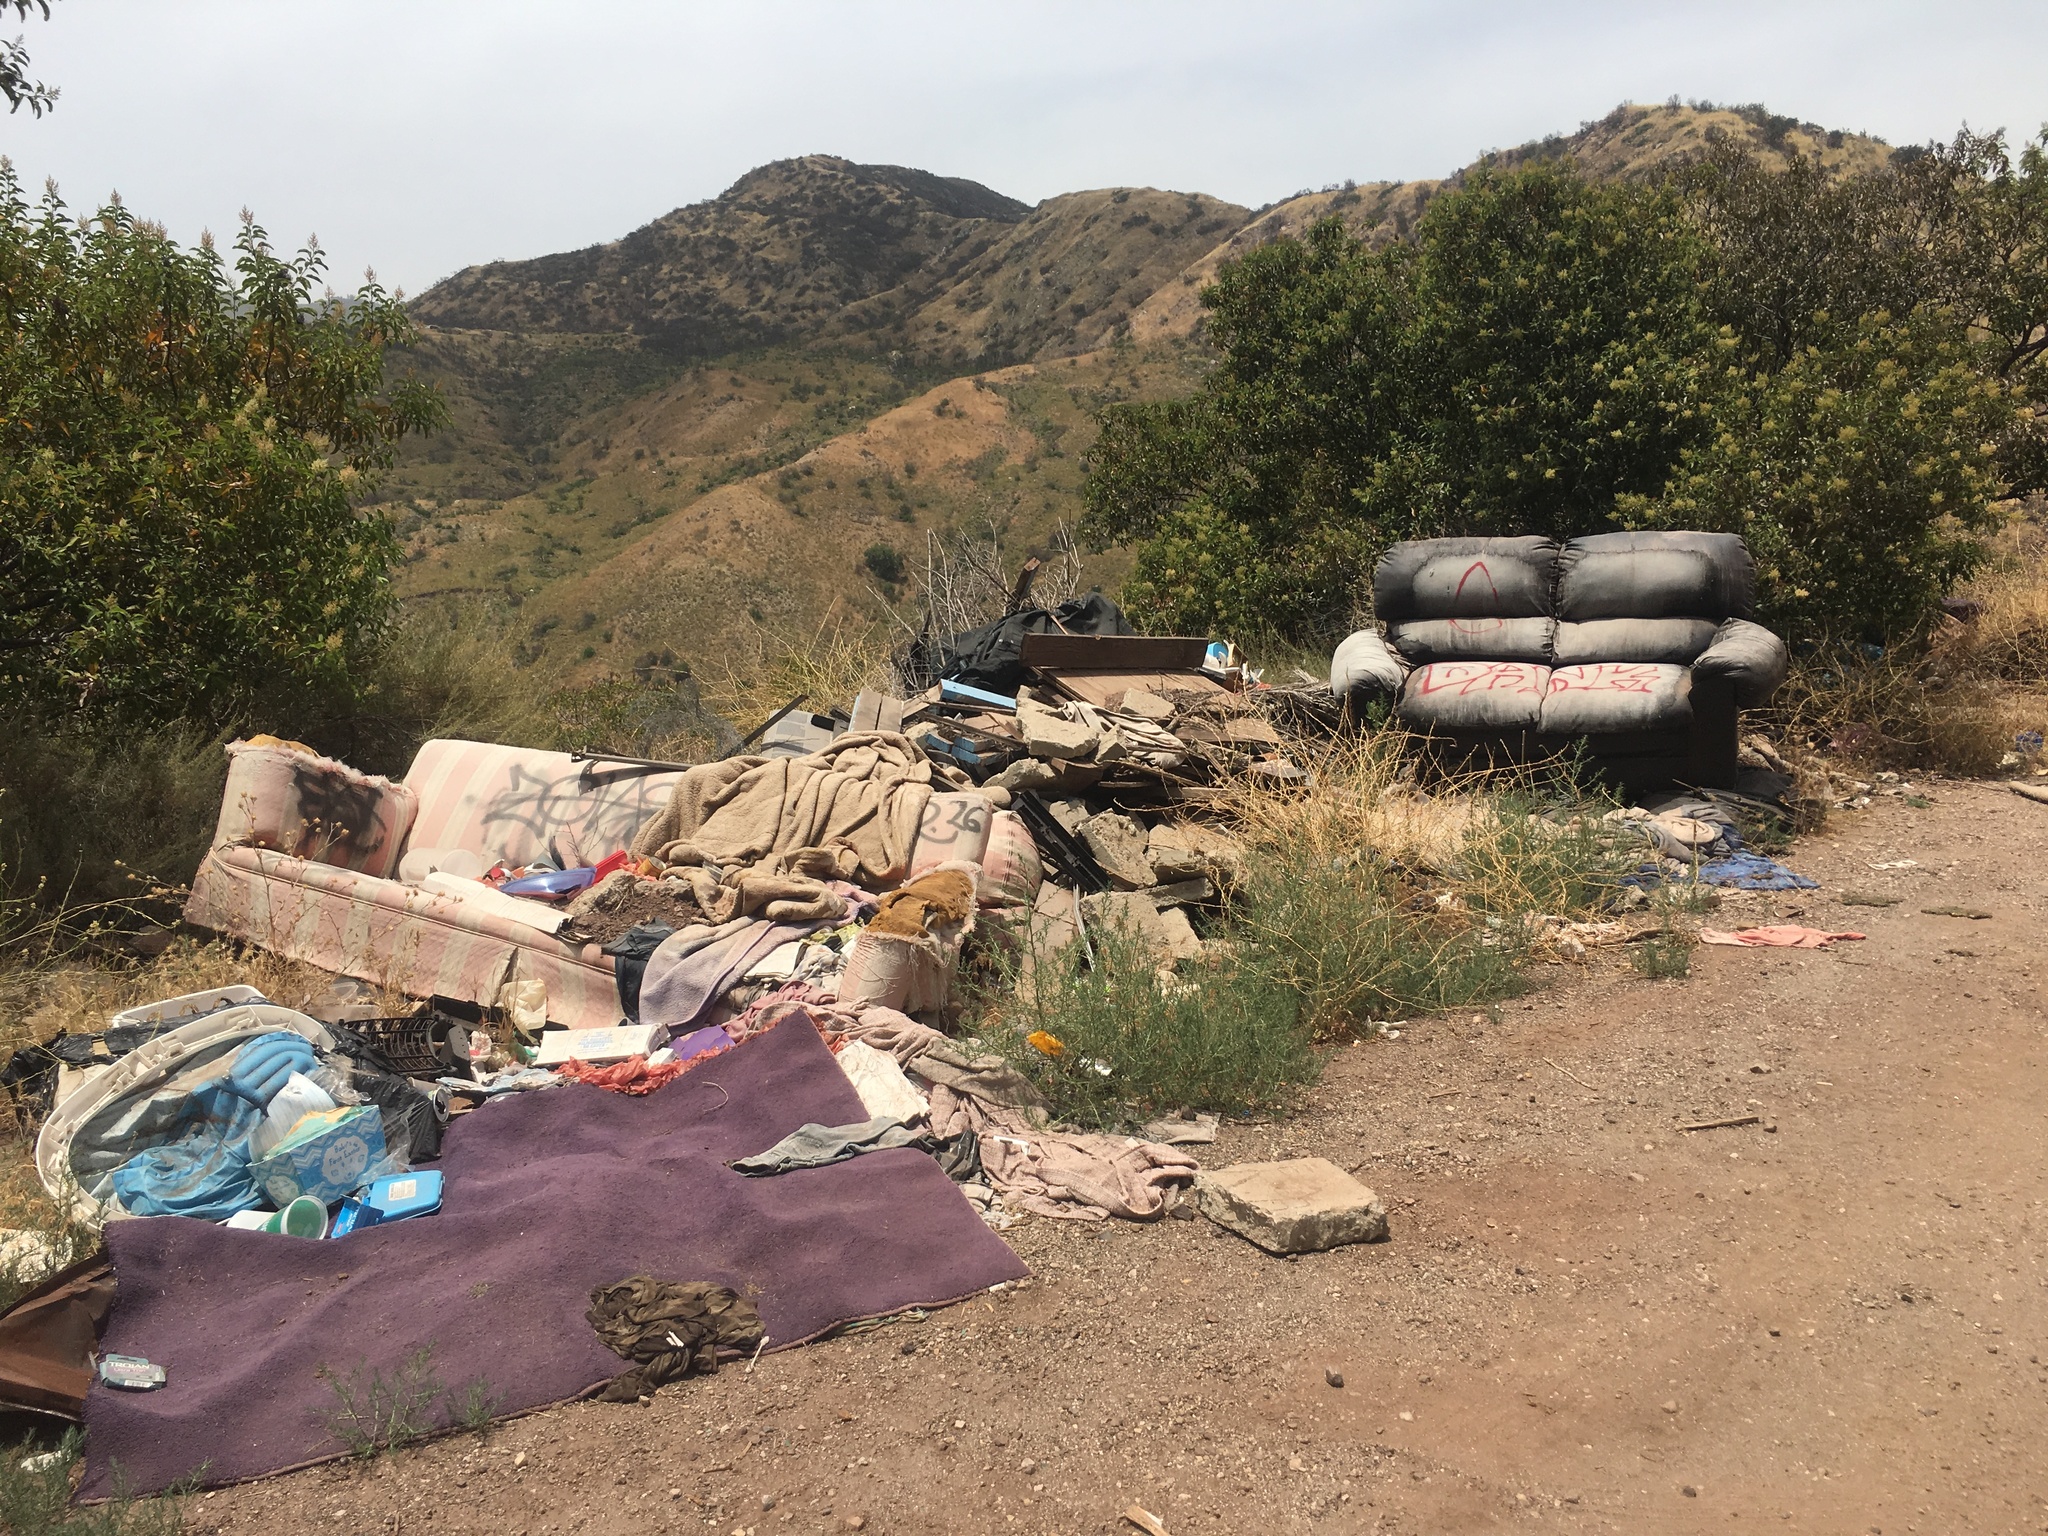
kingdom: Plantae
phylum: Tracheophyta
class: Magnoliopsida
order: Sapindales
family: Anacardiaceae
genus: Malosma
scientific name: Malosma laurina
